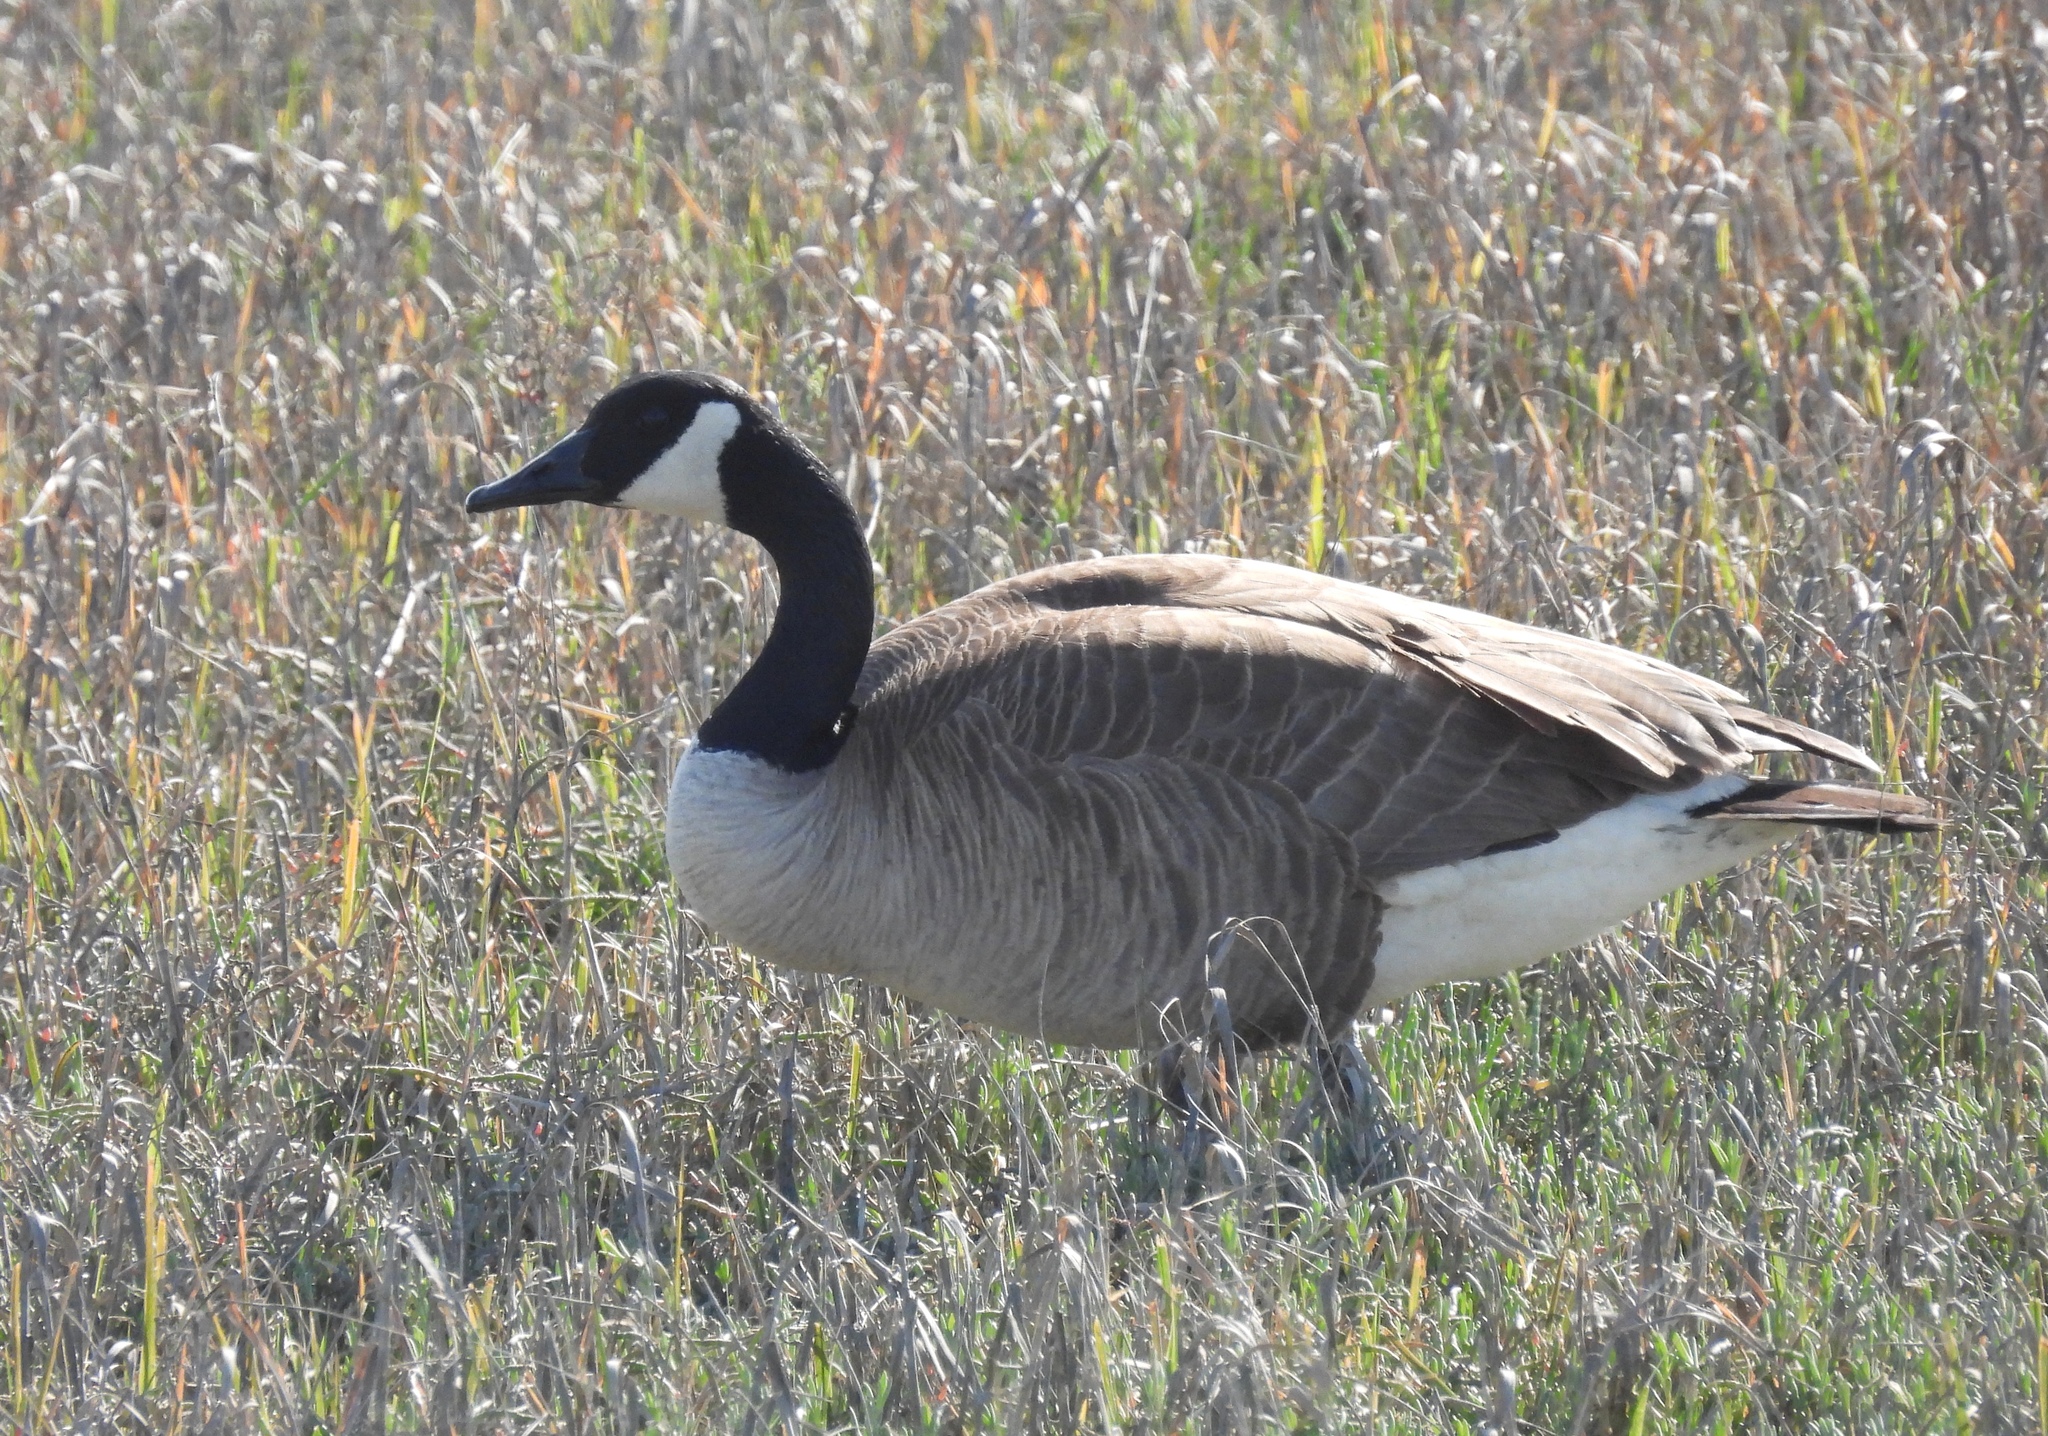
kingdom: Animalia
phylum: Chordata
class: Aves
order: Anseriformes
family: Anatidae
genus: Branta
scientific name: Branta canadensis
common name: Canada goose
